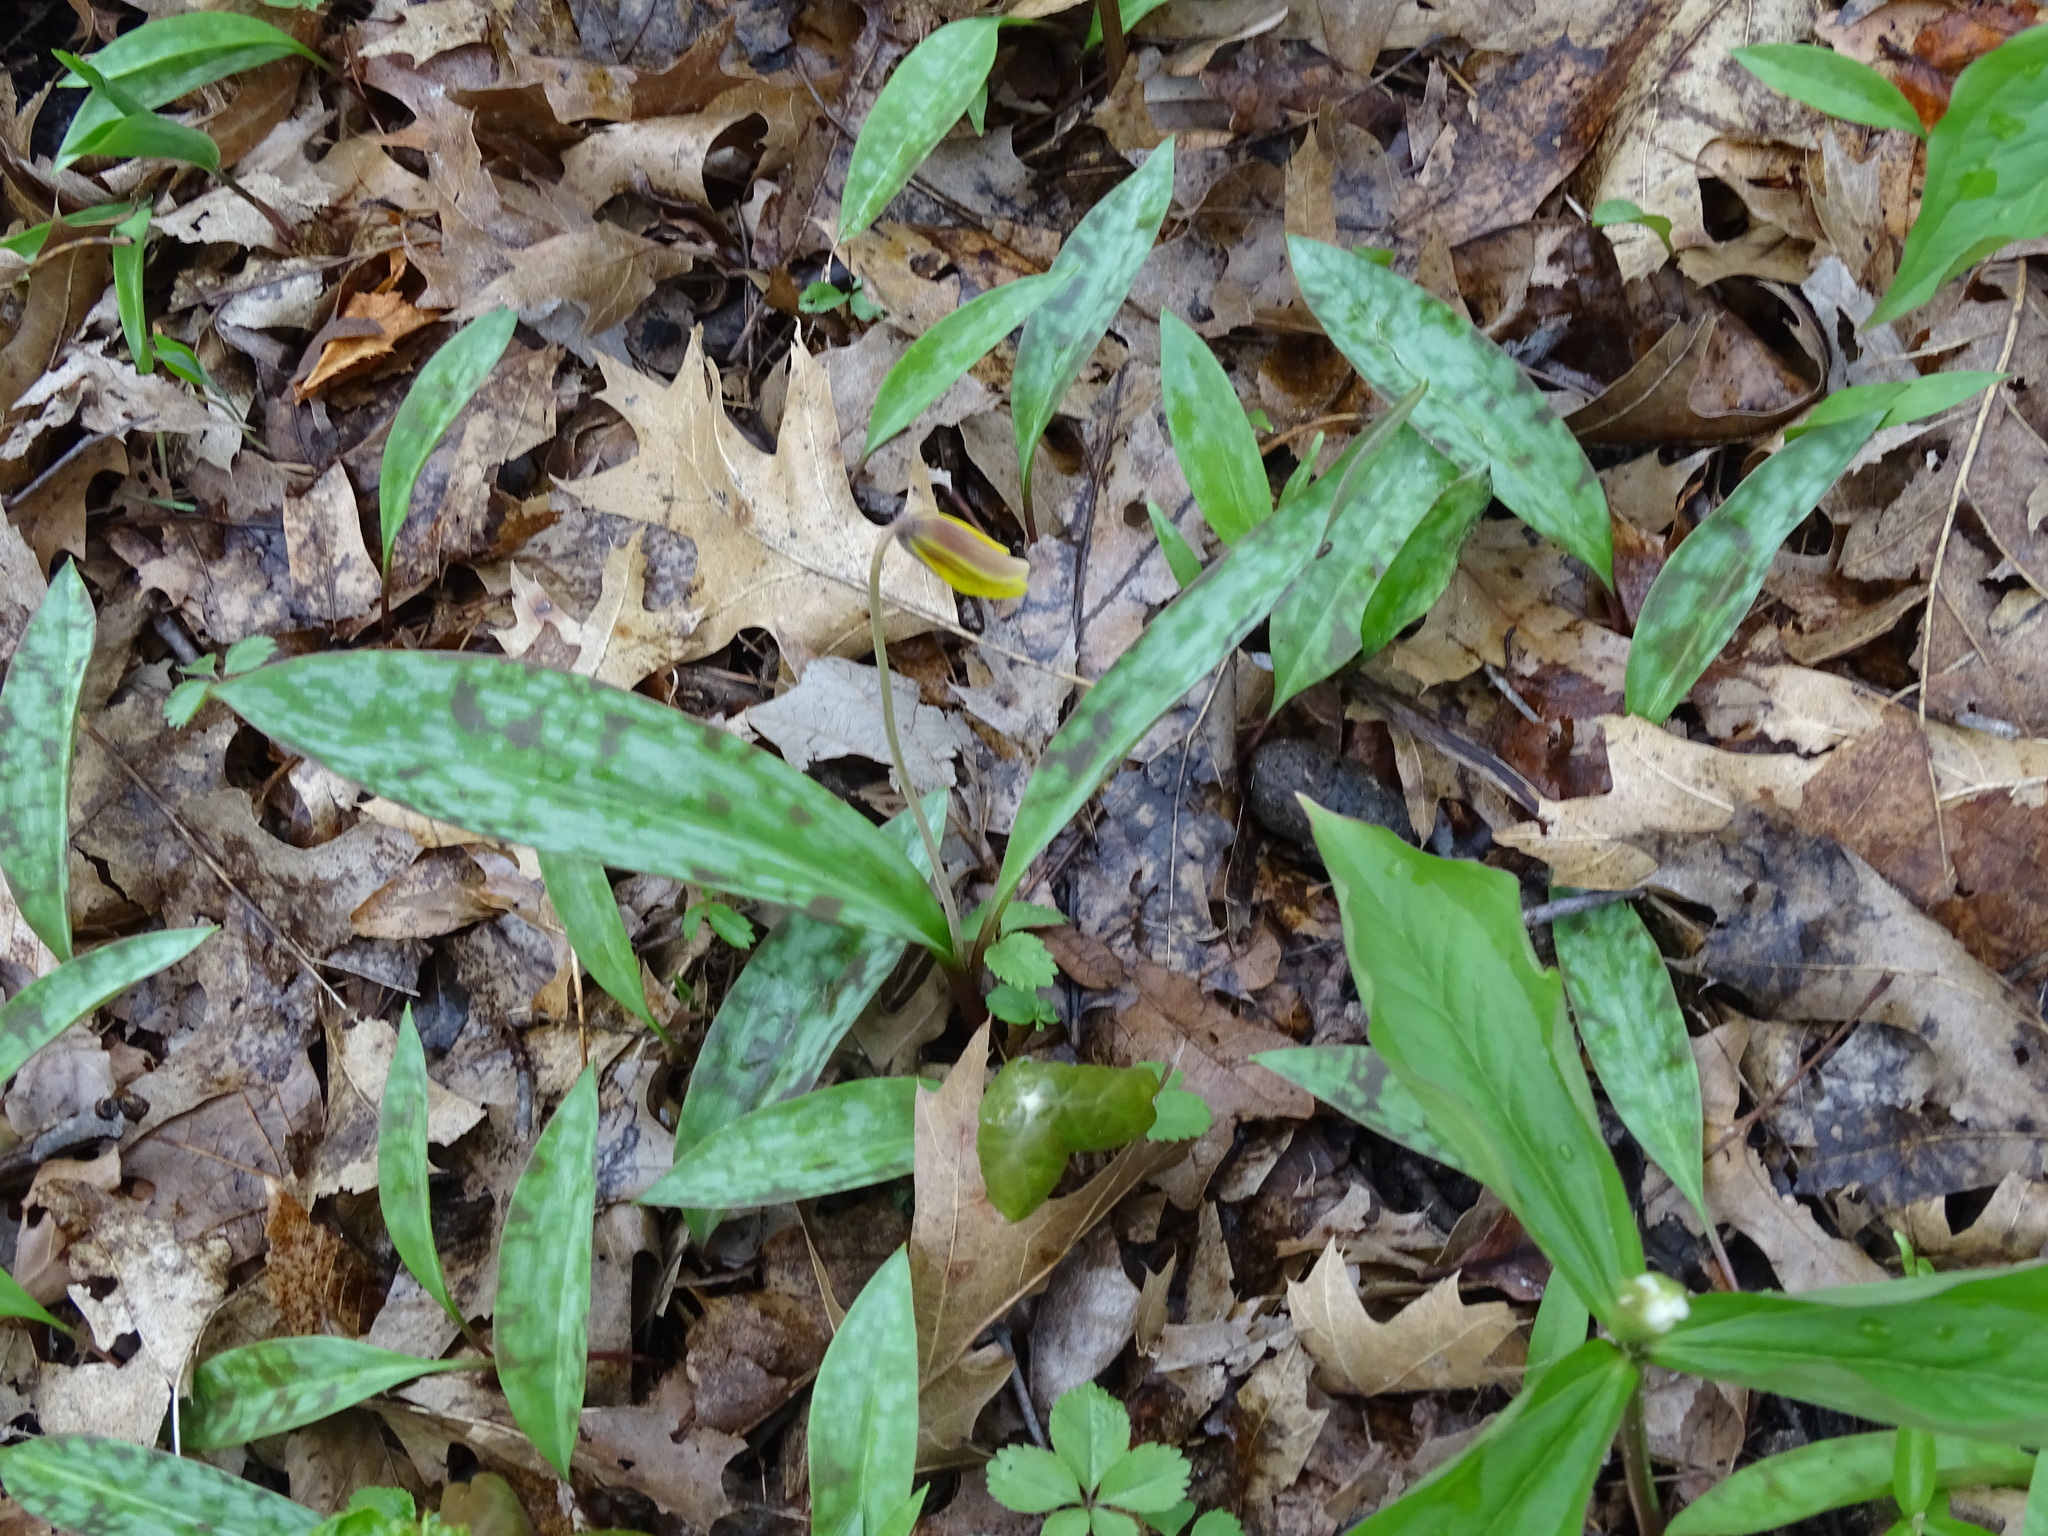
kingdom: Plantae
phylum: Tracheophyta
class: Liliopsida
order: Liliales
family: Liliaceae
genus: Erythronium
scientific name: Erythronium americanum
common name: Yellow adder's-tongue
